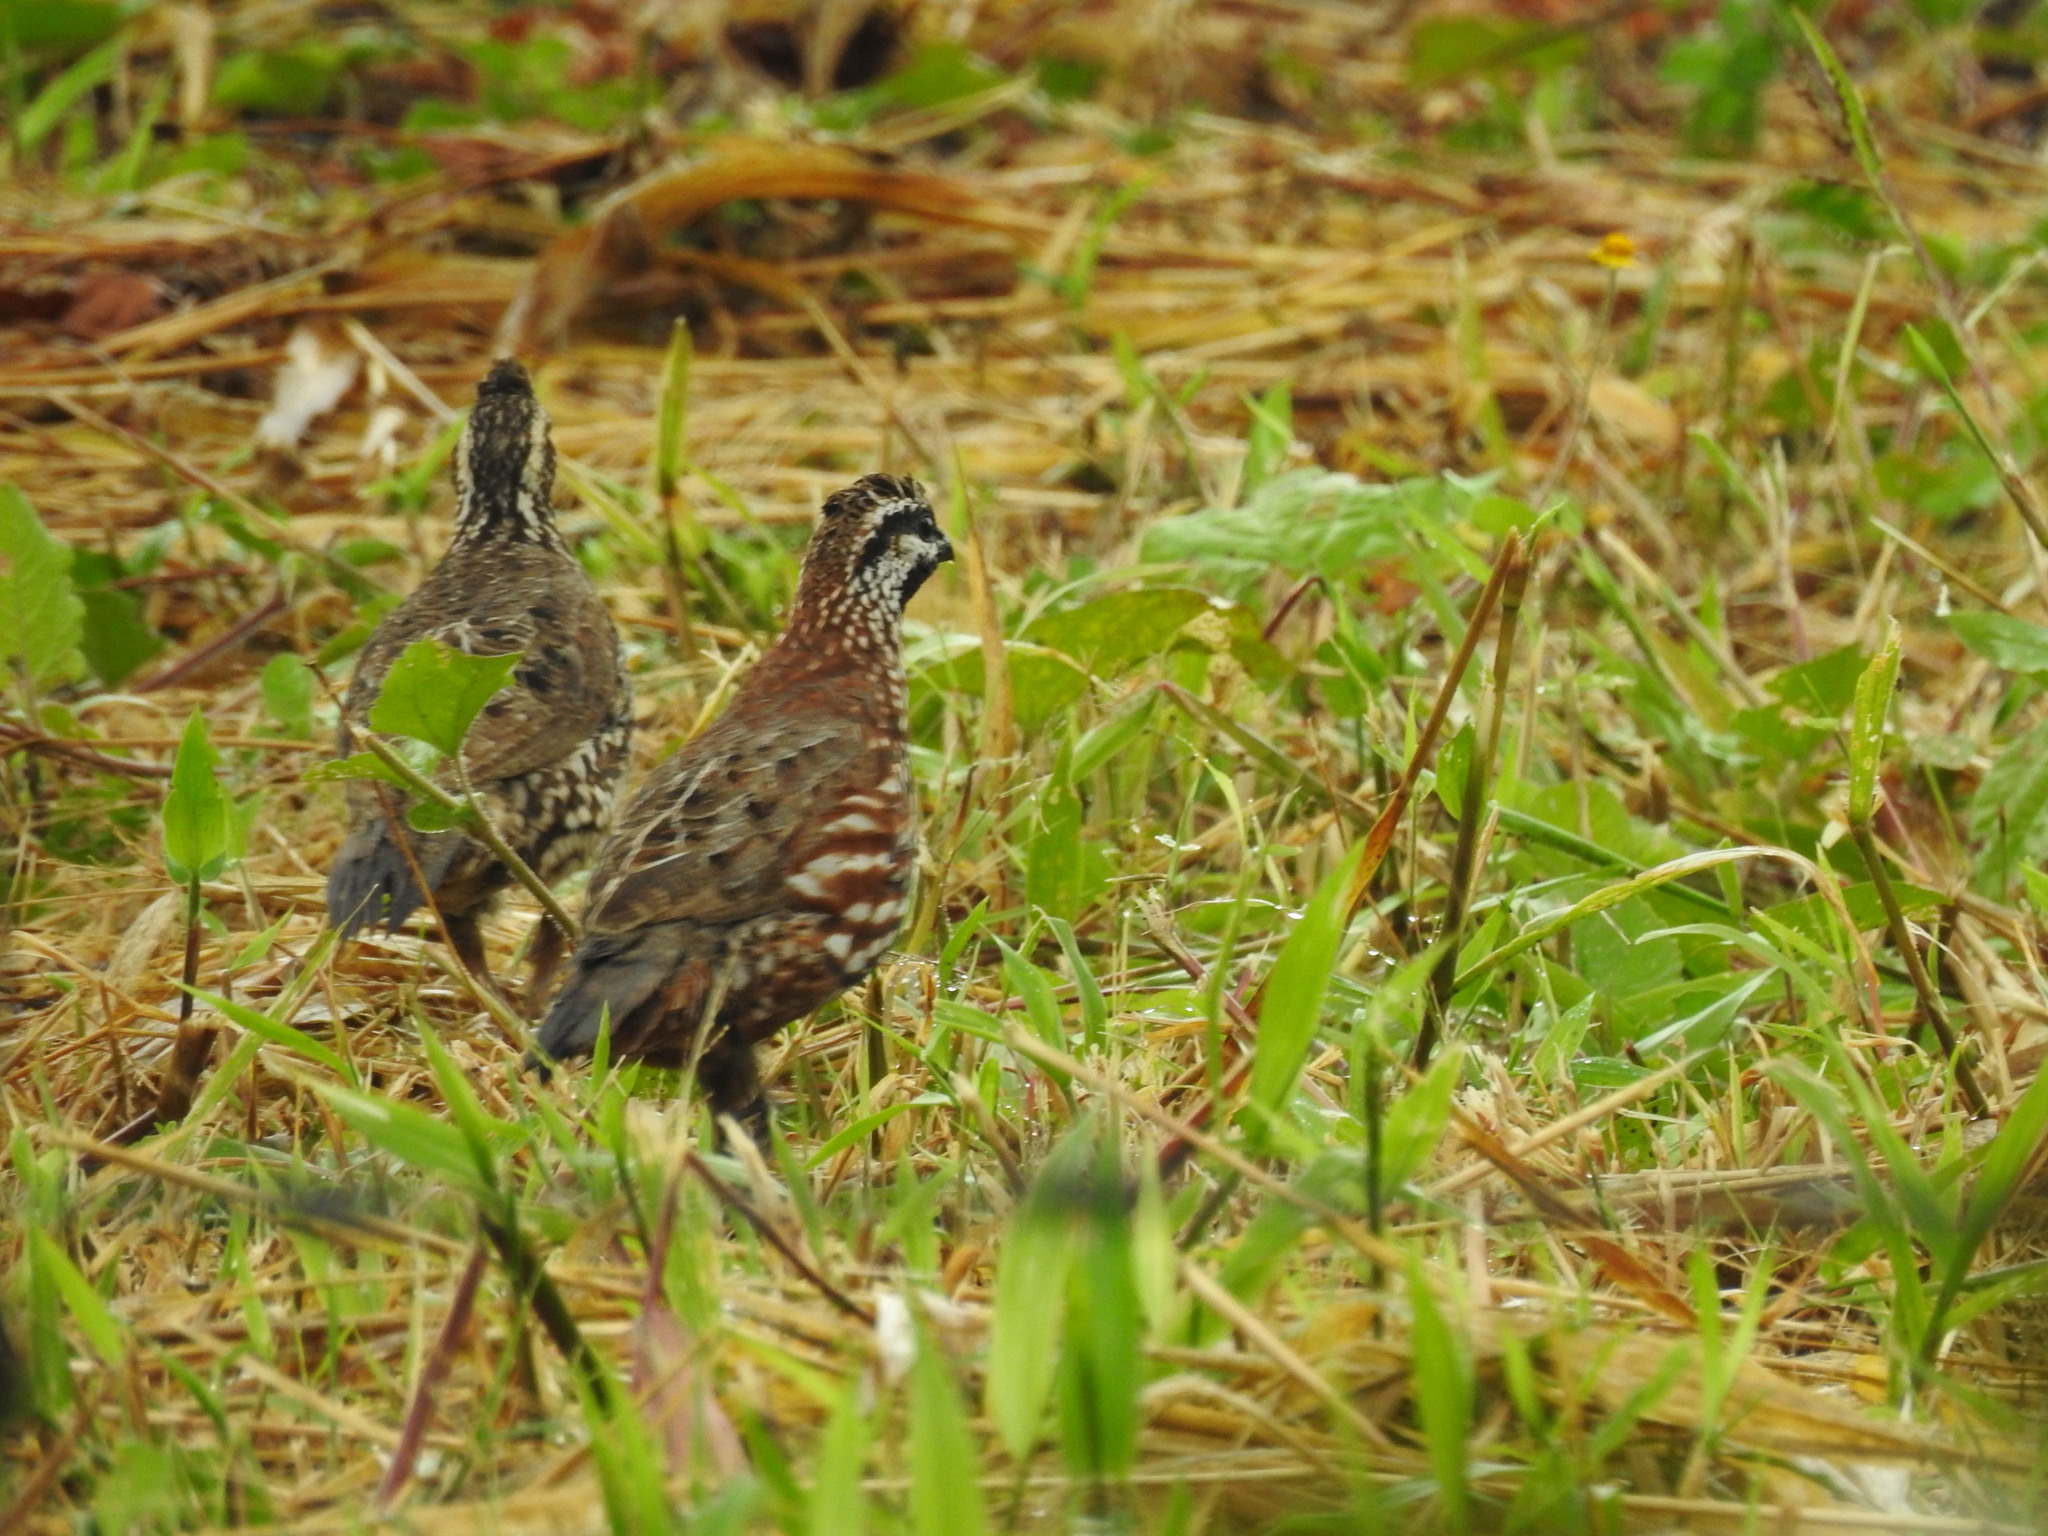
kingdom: Animalia
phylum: Chordata
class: Aves
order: Galliformes
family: Odontophoridae
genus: Colinus
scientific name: Colinus nigrogularis
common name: Yucatan bobwhite
